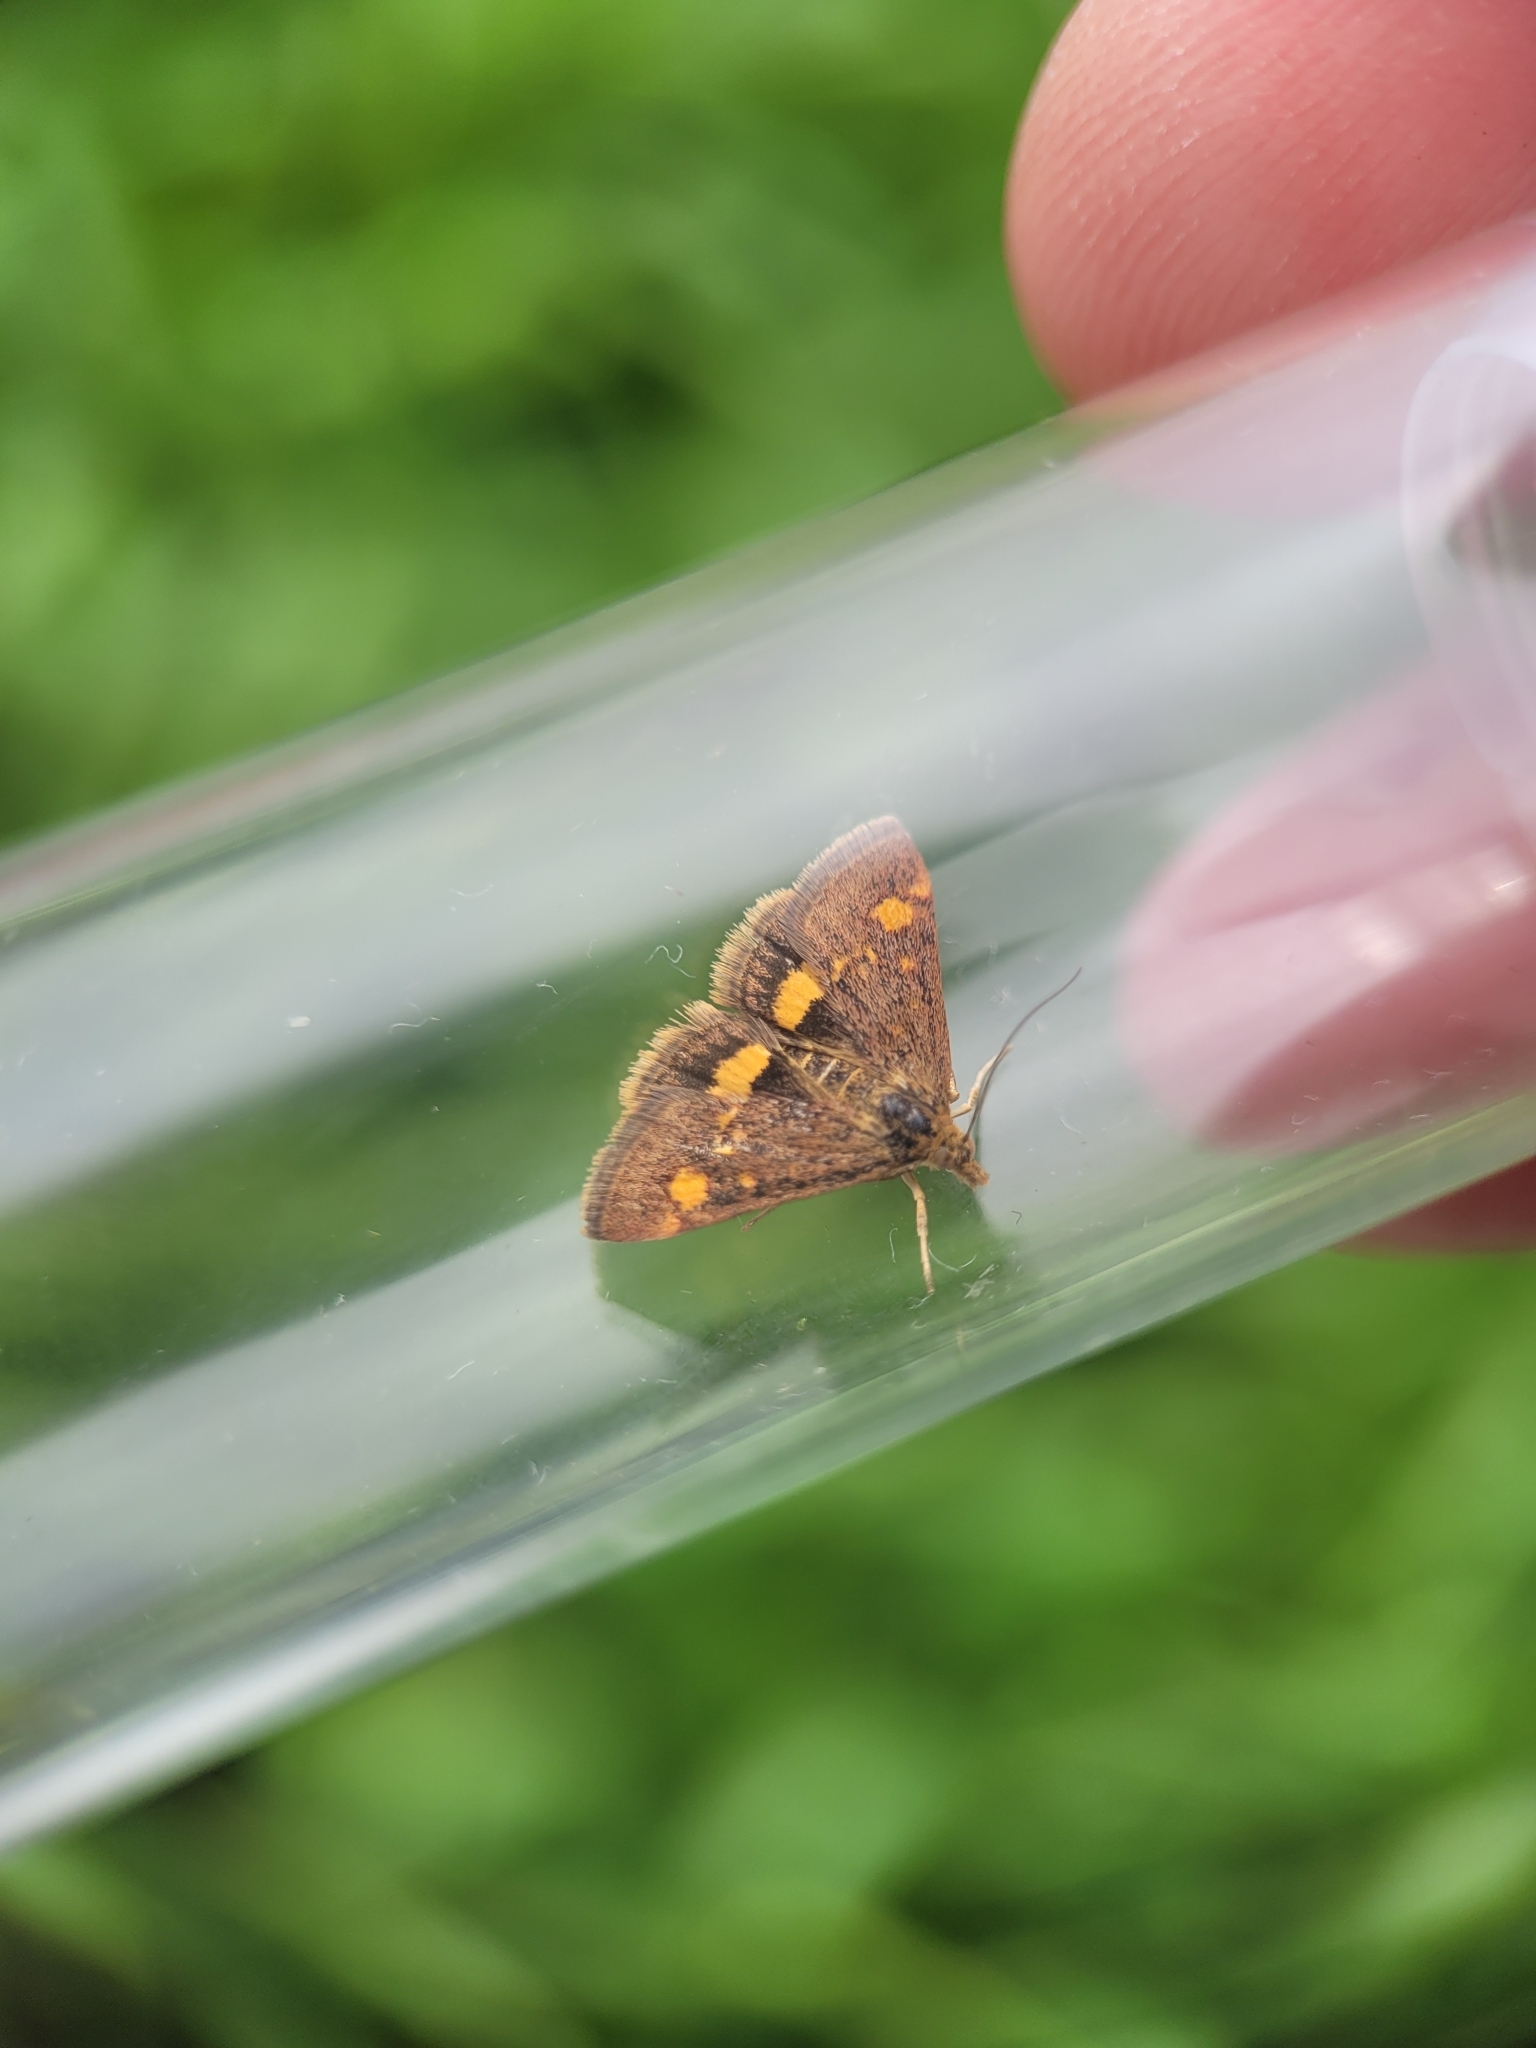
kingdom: Animalia
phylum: Arthropoda
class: Insecta
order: Lepidoptera
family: Crambidae
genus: Pyrausta
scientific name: Pyrausta aurata
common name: Small purple & gold
